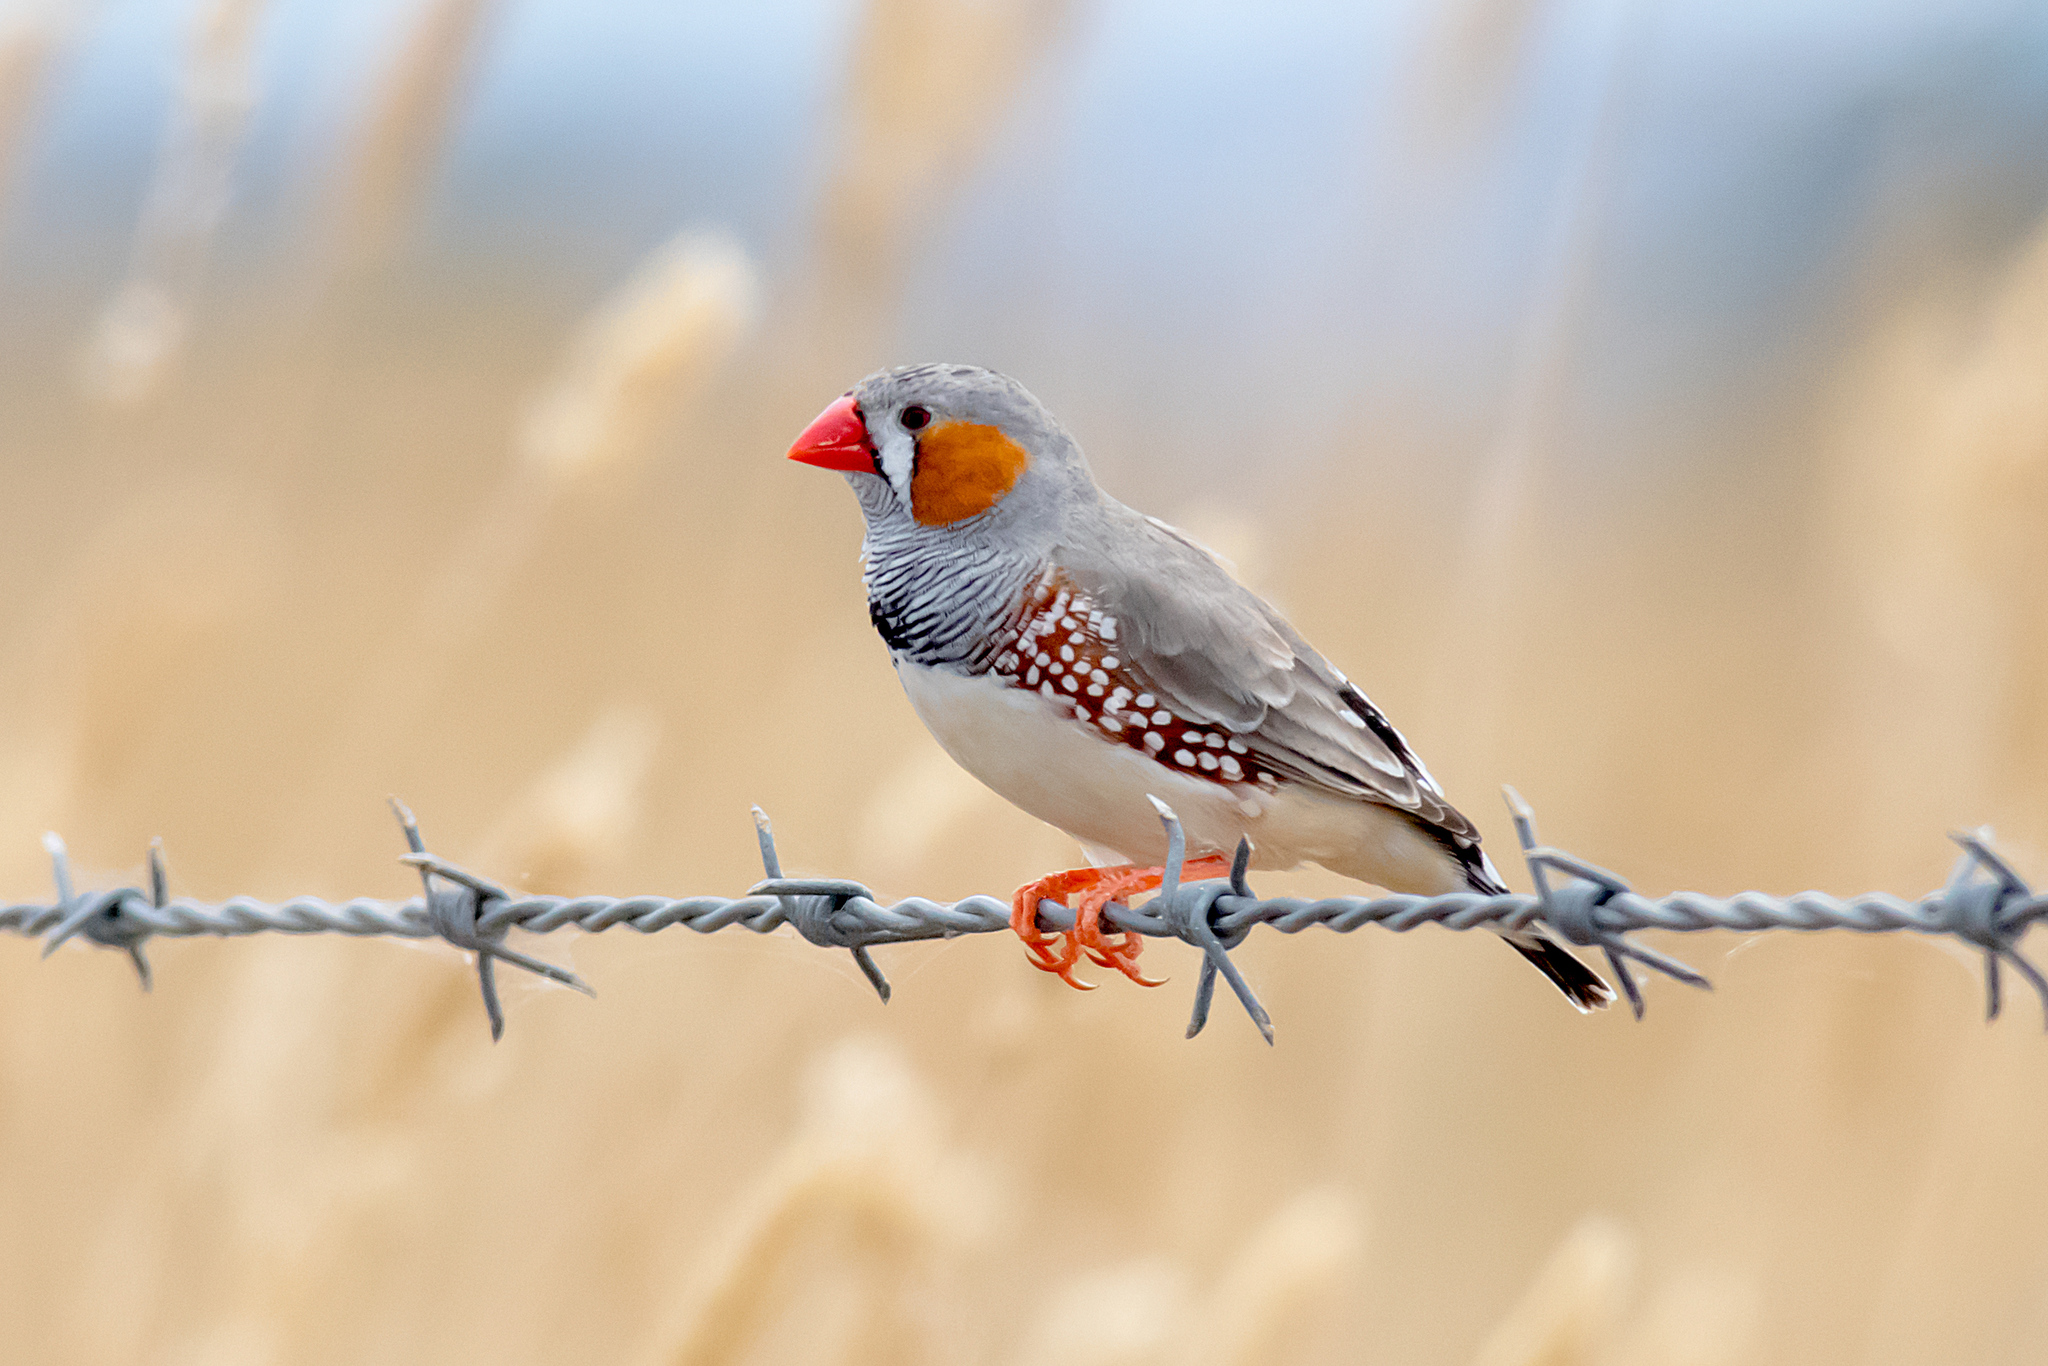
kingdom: Animalia
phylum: Chordata
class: Aves
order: Passeriformes
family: Estrildidae
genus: Taeniopygia
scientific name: Taeniopygia guttata
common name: Zebra finch
